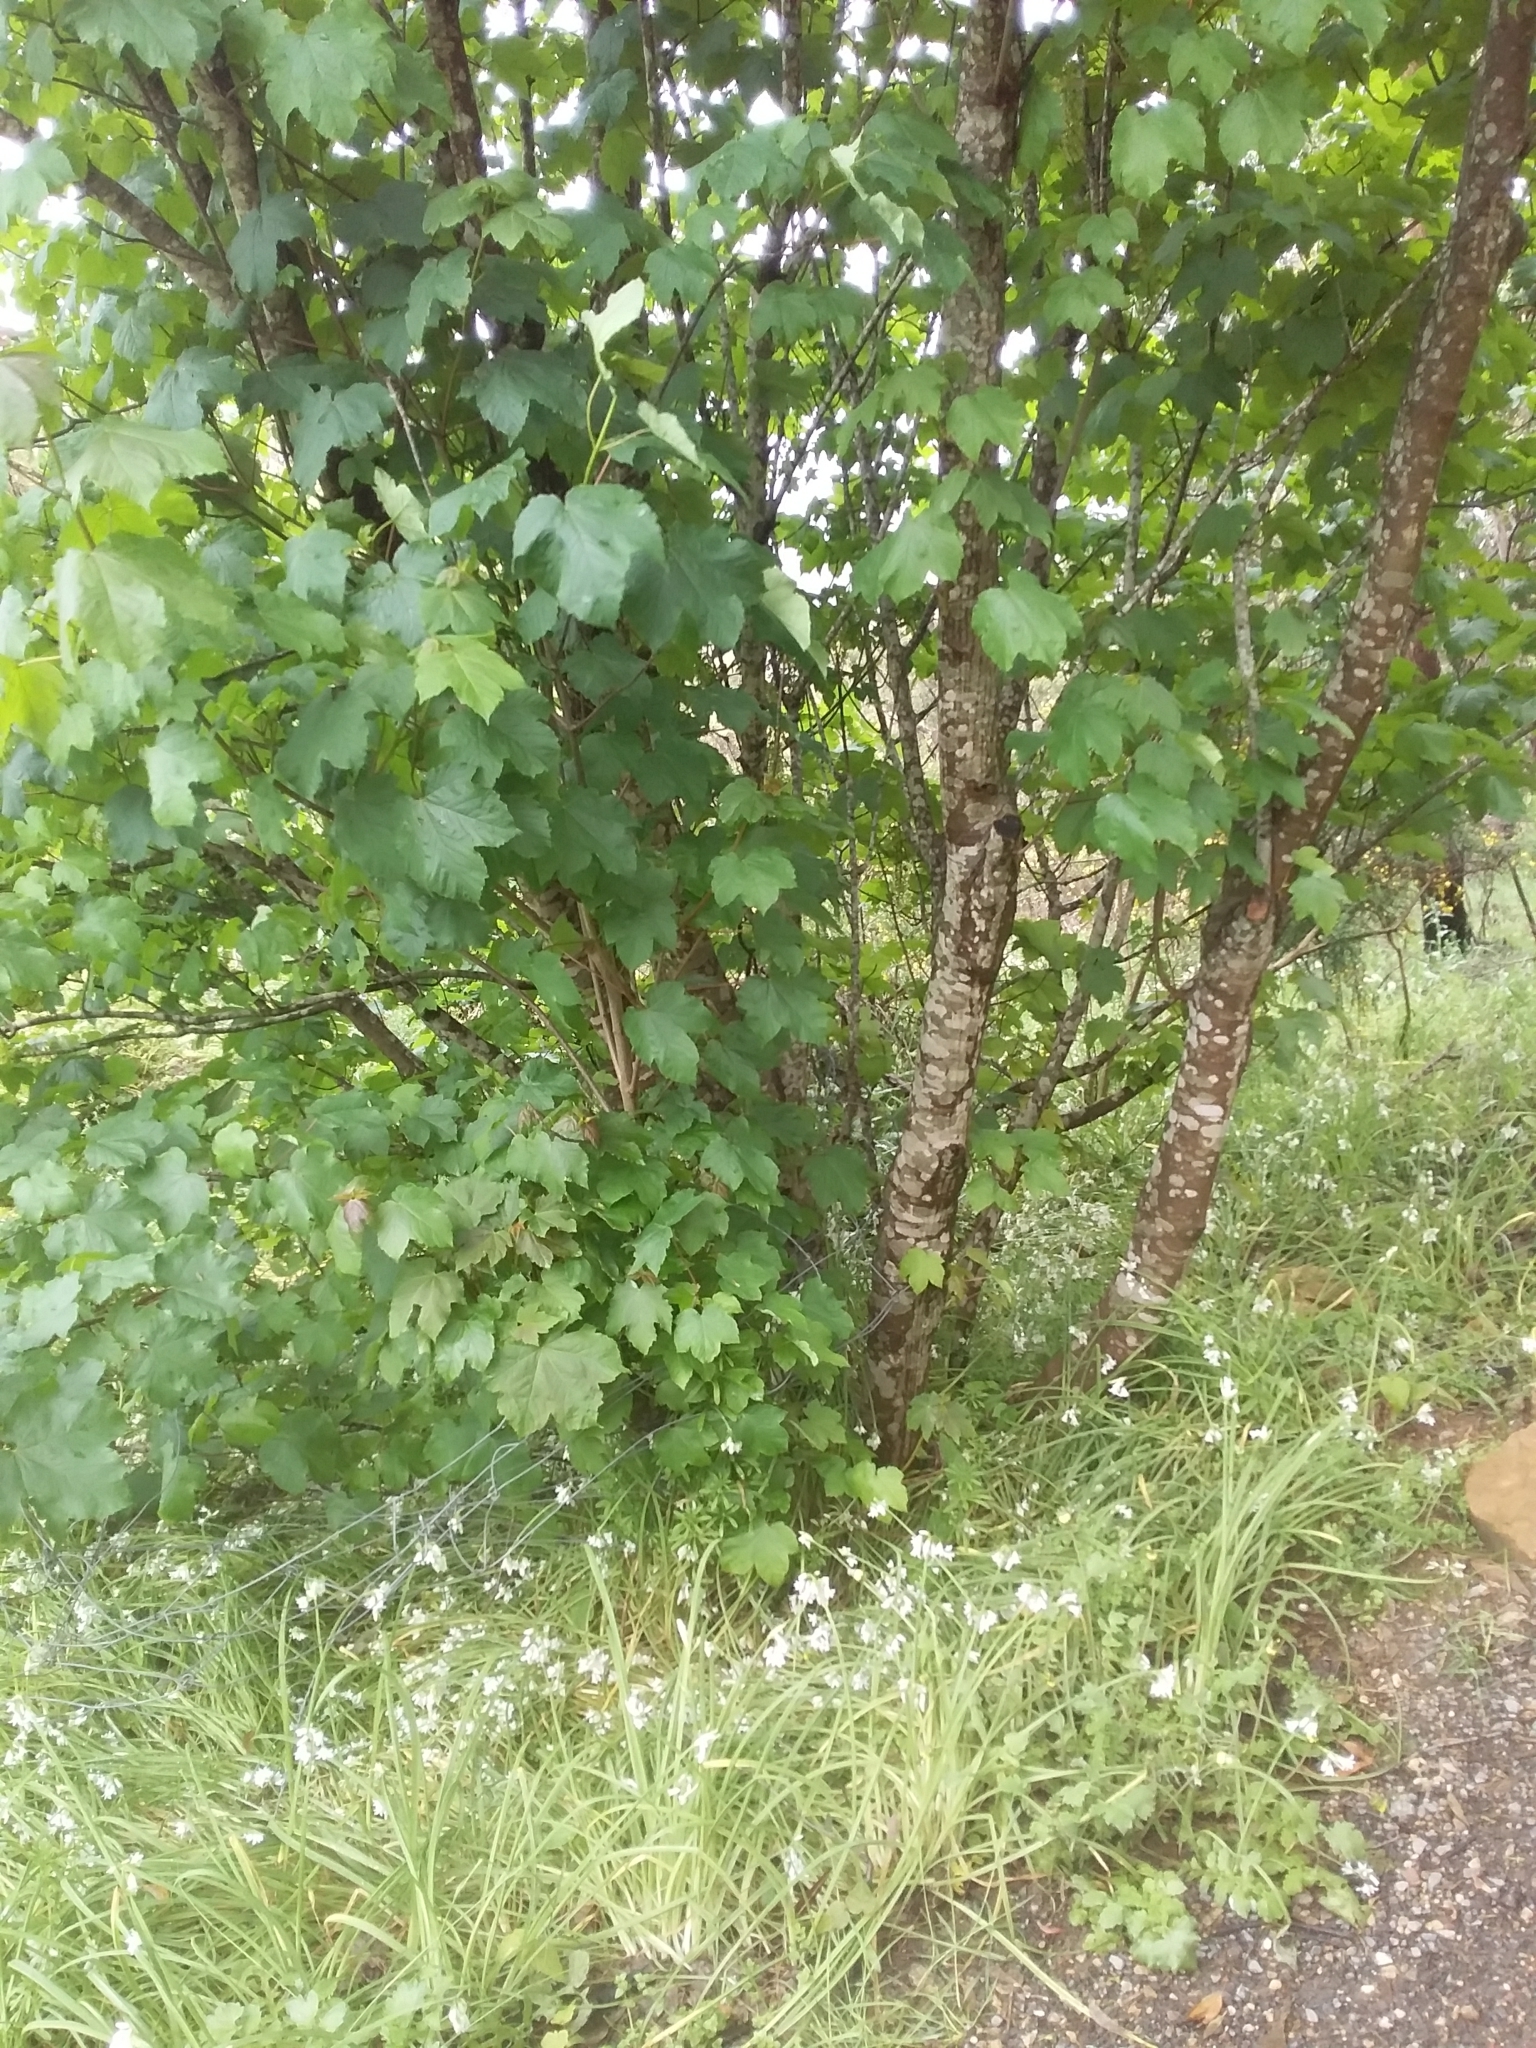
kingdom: Plantae
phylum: Tracheophyta
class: Magnoliopsida
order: Sapindales
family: Sapindaceae
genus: Acer
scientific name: Acer pseudoplatanus
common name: Sycamore
